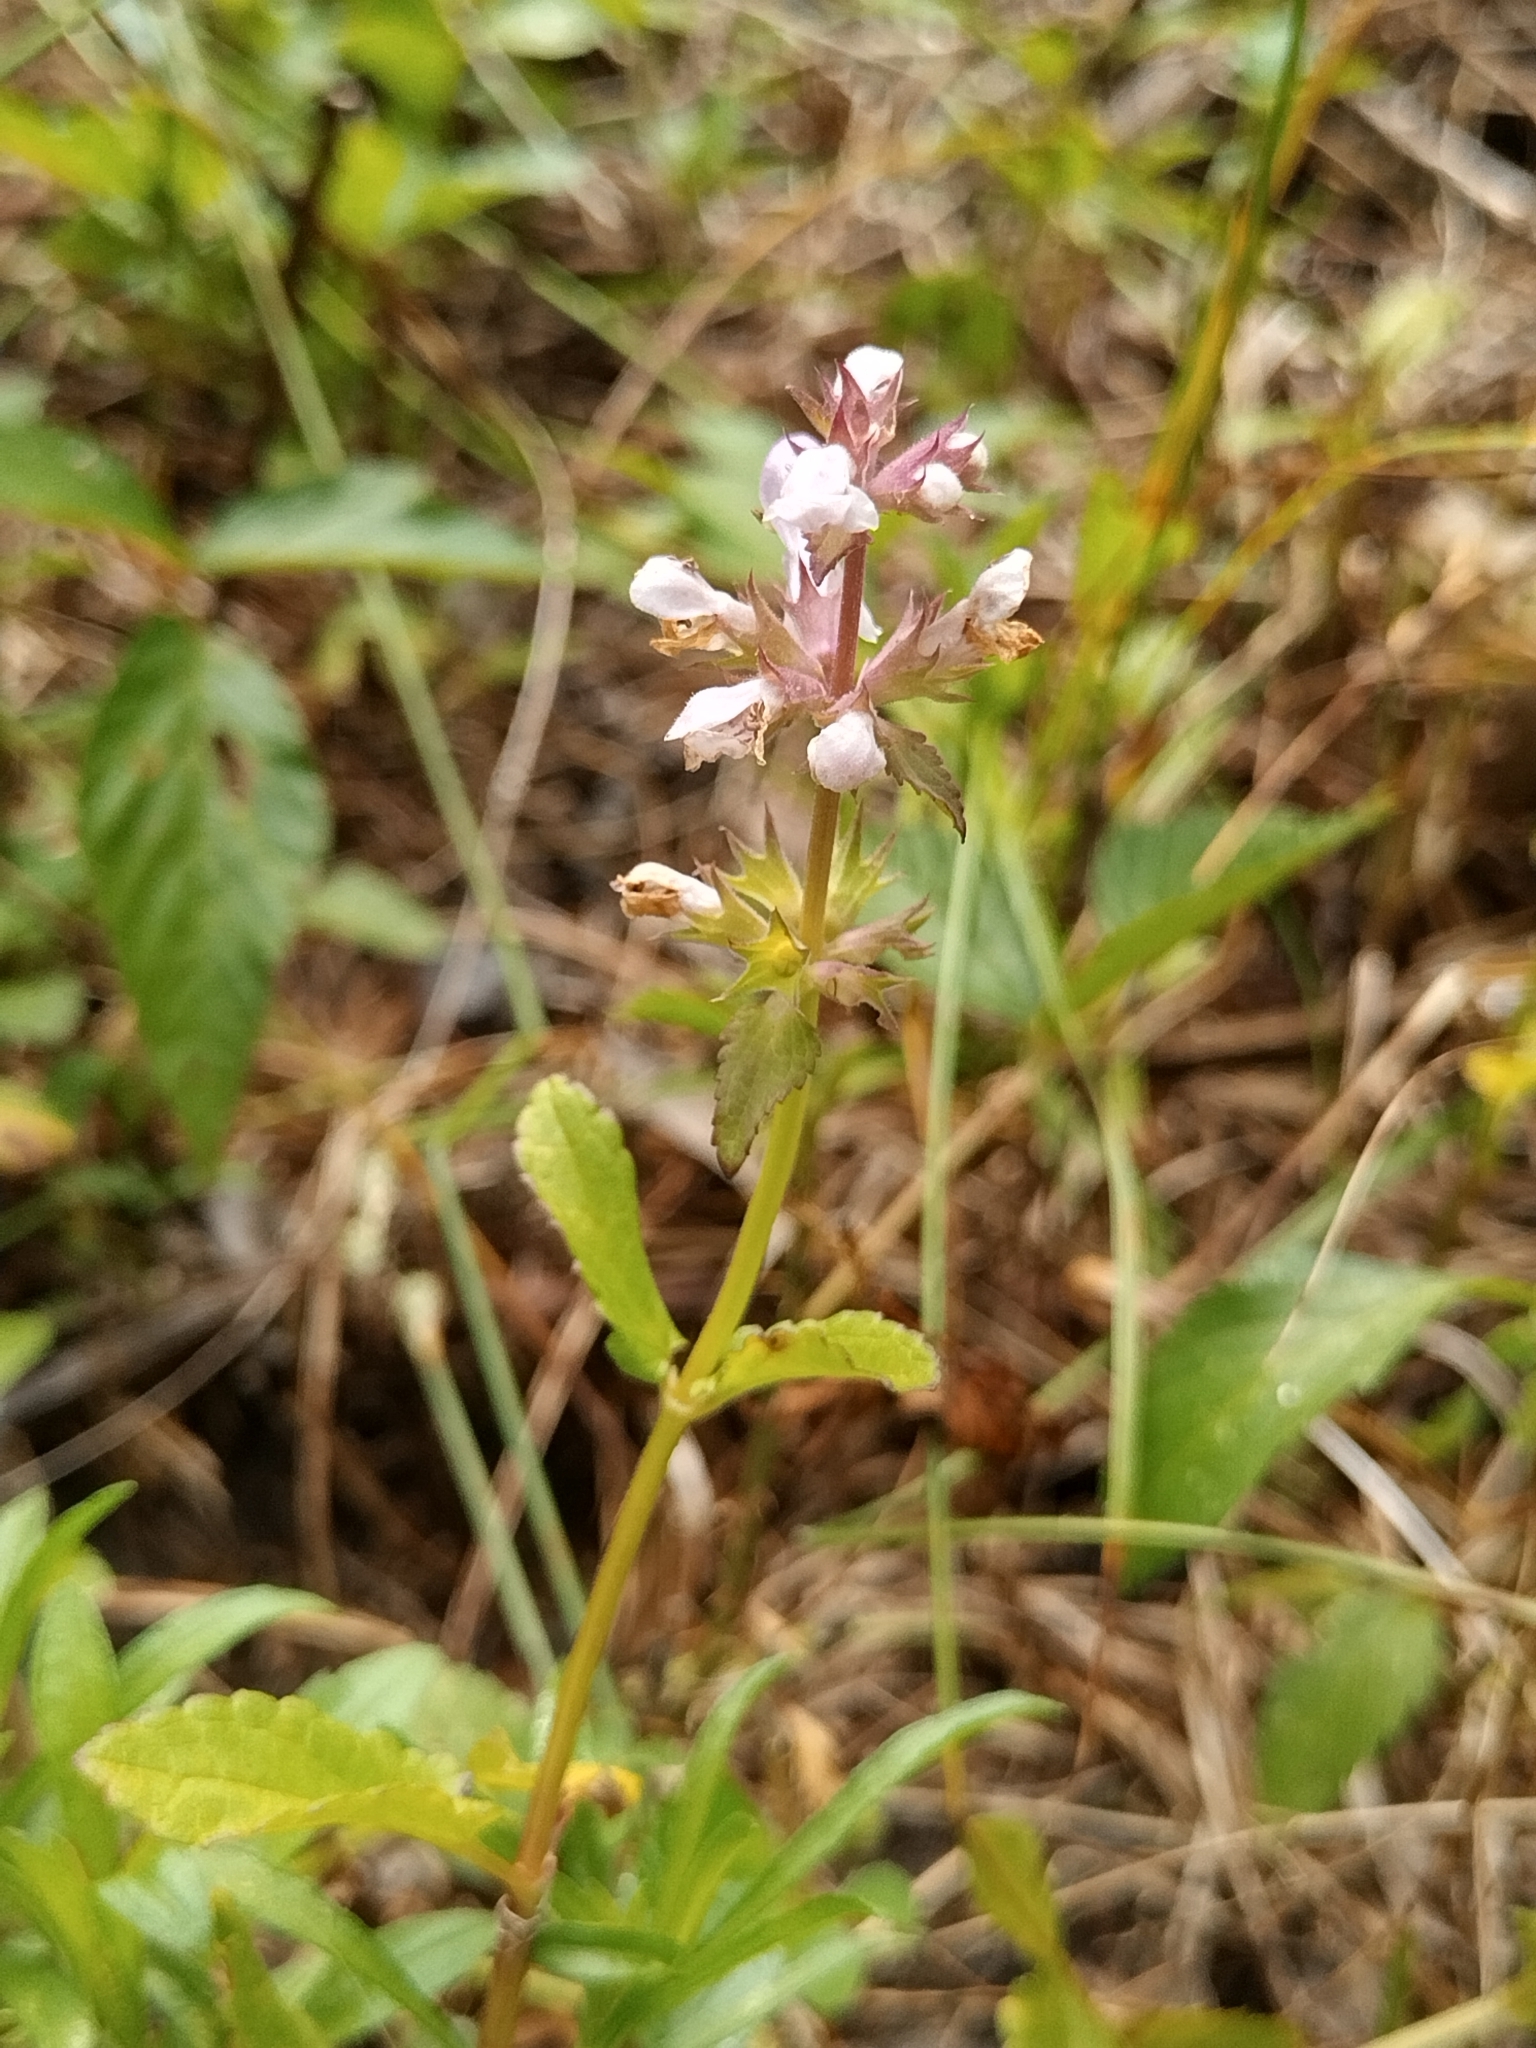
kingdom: Plantae
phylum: Tracheophyta
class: Magnoliopsida
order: Lamiales
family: Lamiaceae
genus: Stachys
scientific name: Stachys floridana
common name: Florida betony
